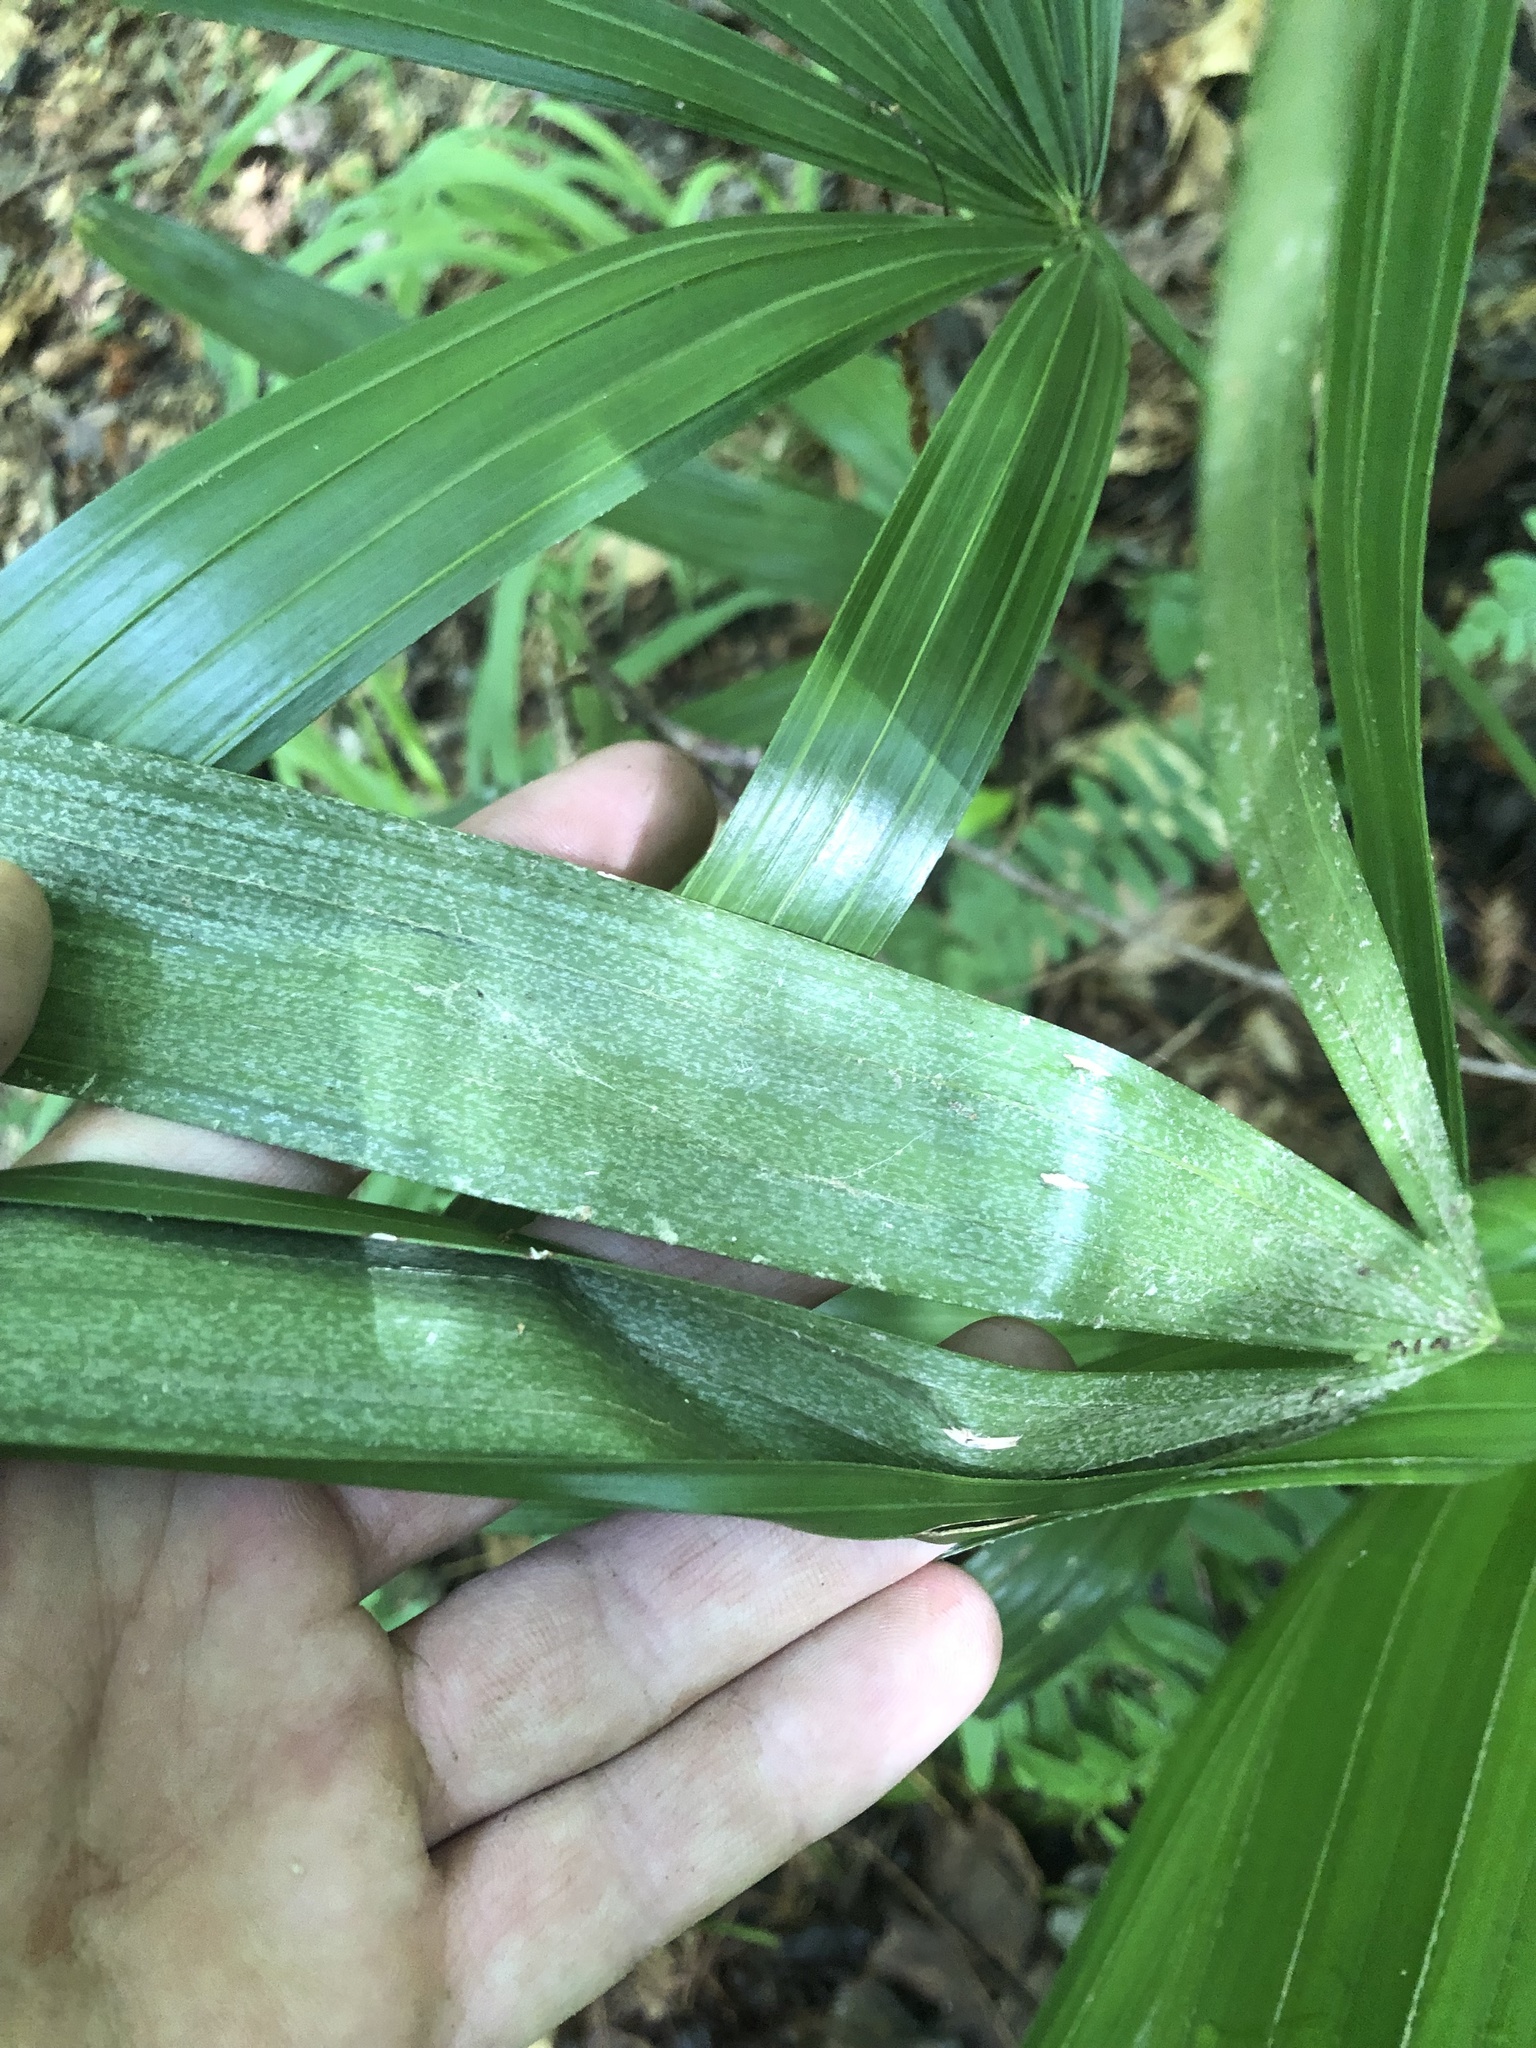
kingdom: Plantae
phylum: Tracheophyta
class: Liliopsida
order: Arecales
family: Arecaceae
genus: Rhapidophyllum
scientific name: Rhapidophyllum hystrix
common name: Porcupine palm
